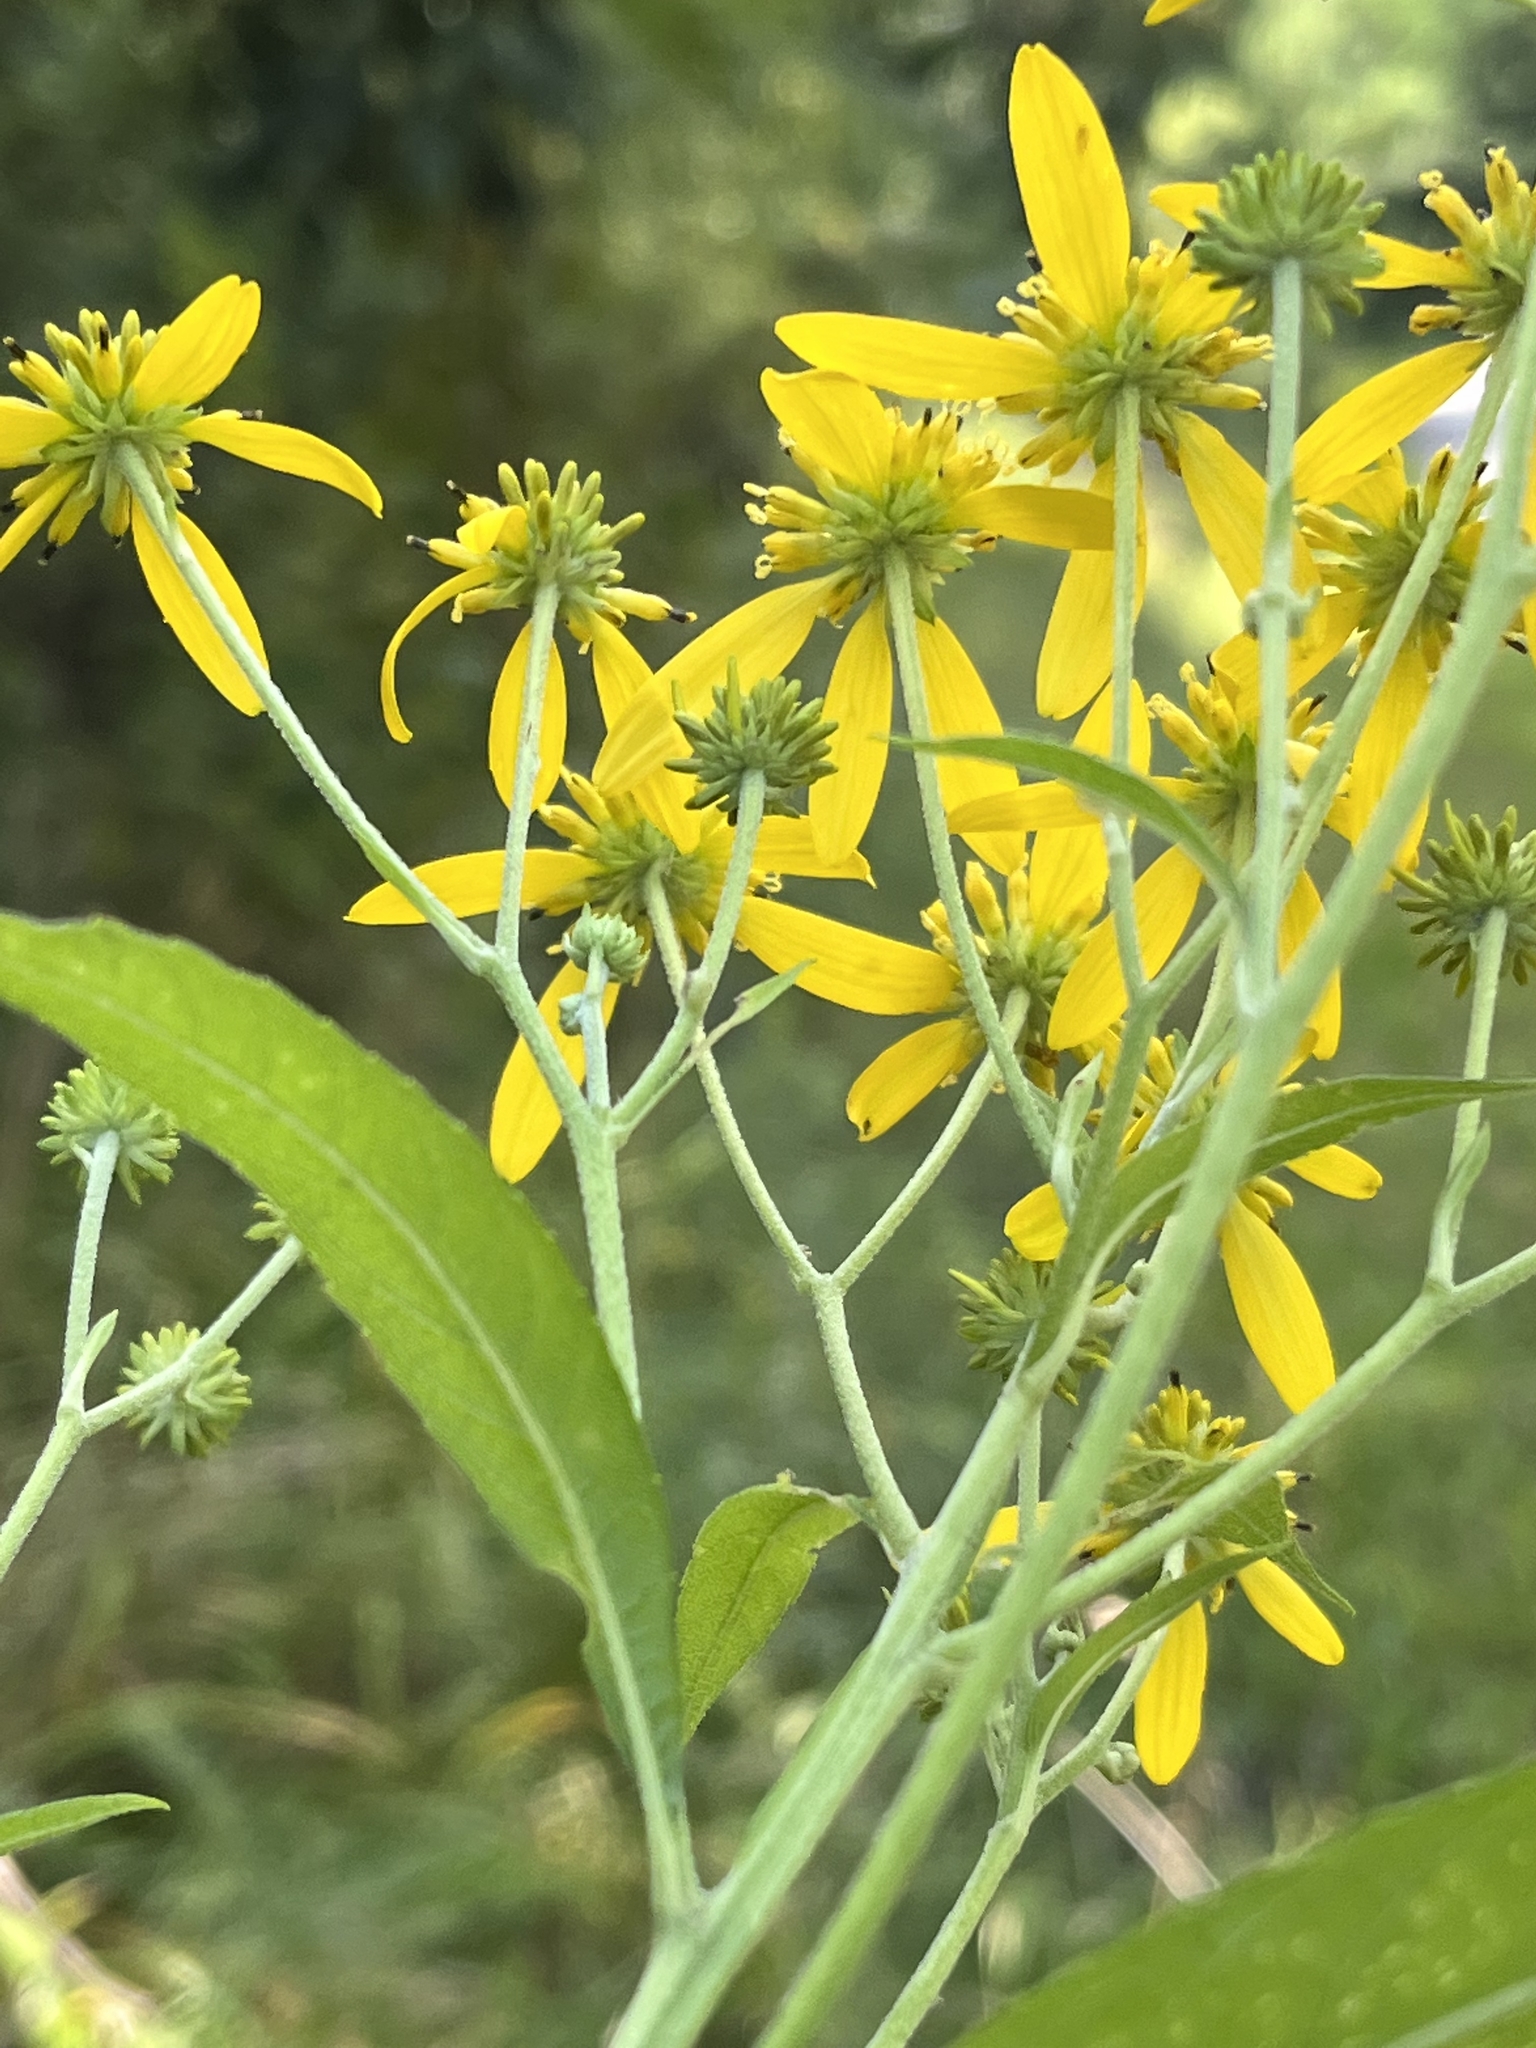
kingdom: Plantae
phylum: Tracheophyta
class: Magnoliopsida
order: Asterales
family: Asteraceae
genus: Verbesina
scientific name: Verbesina alternifolia
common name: Wingstem
